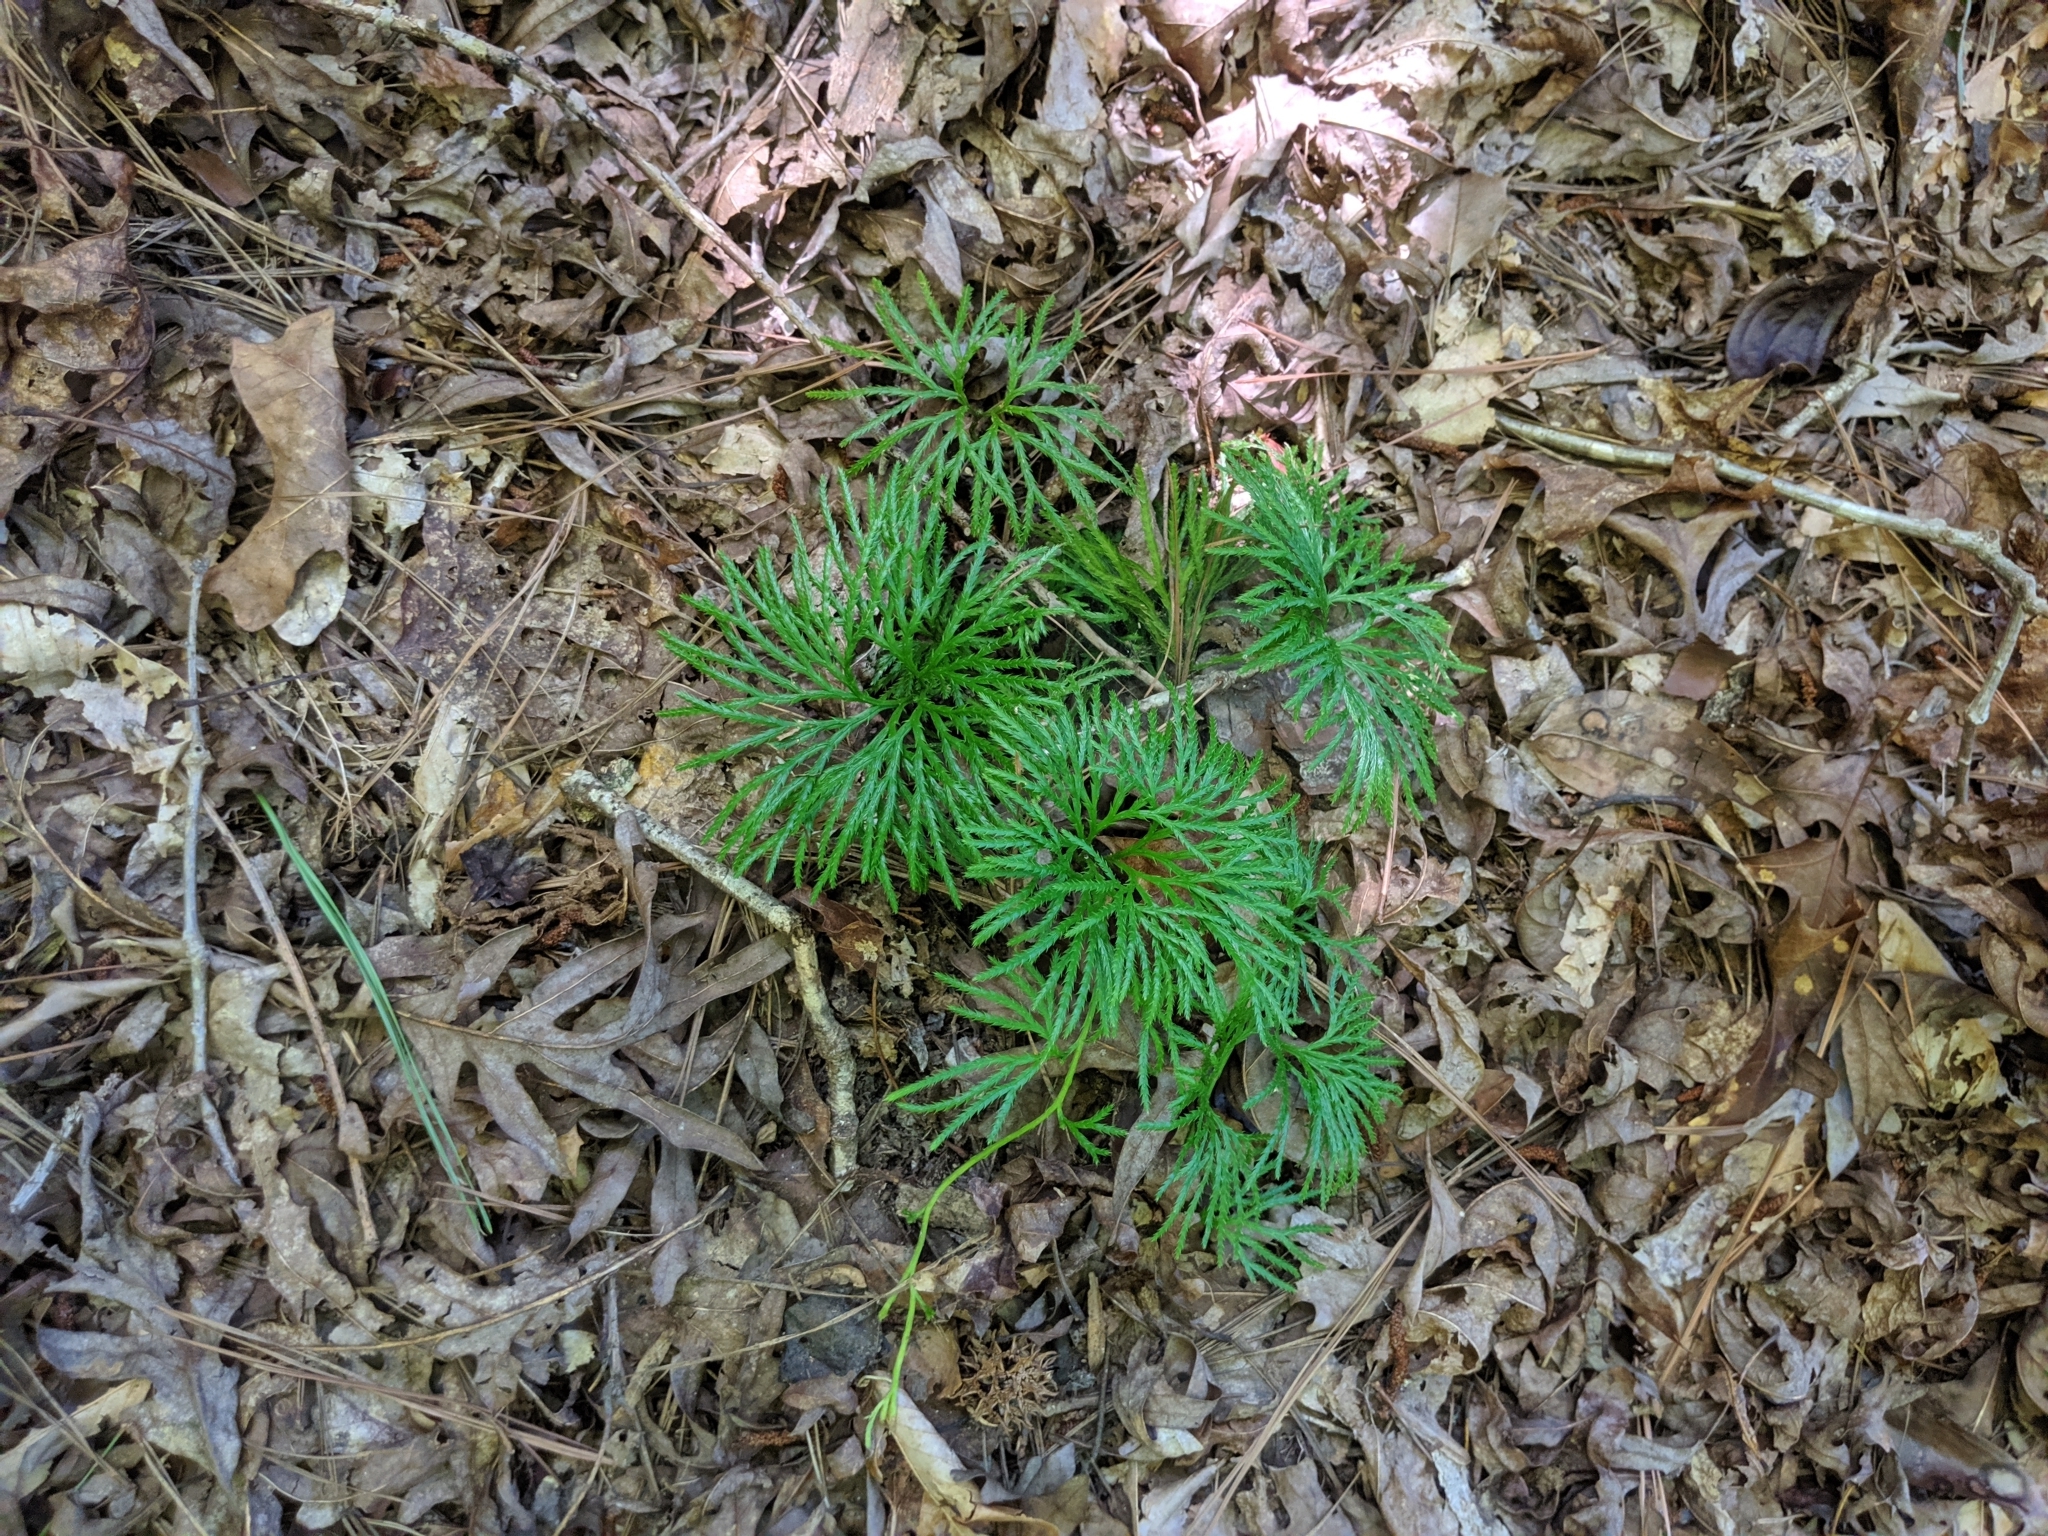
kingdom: Plantae
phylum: Tracheophyta
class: Lycopodiopsida
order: Lycopodiales
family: Lycopodiaceae
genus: Diphasiastrum
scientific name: Diphasiastrum digitatum
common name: Southern running-pine
